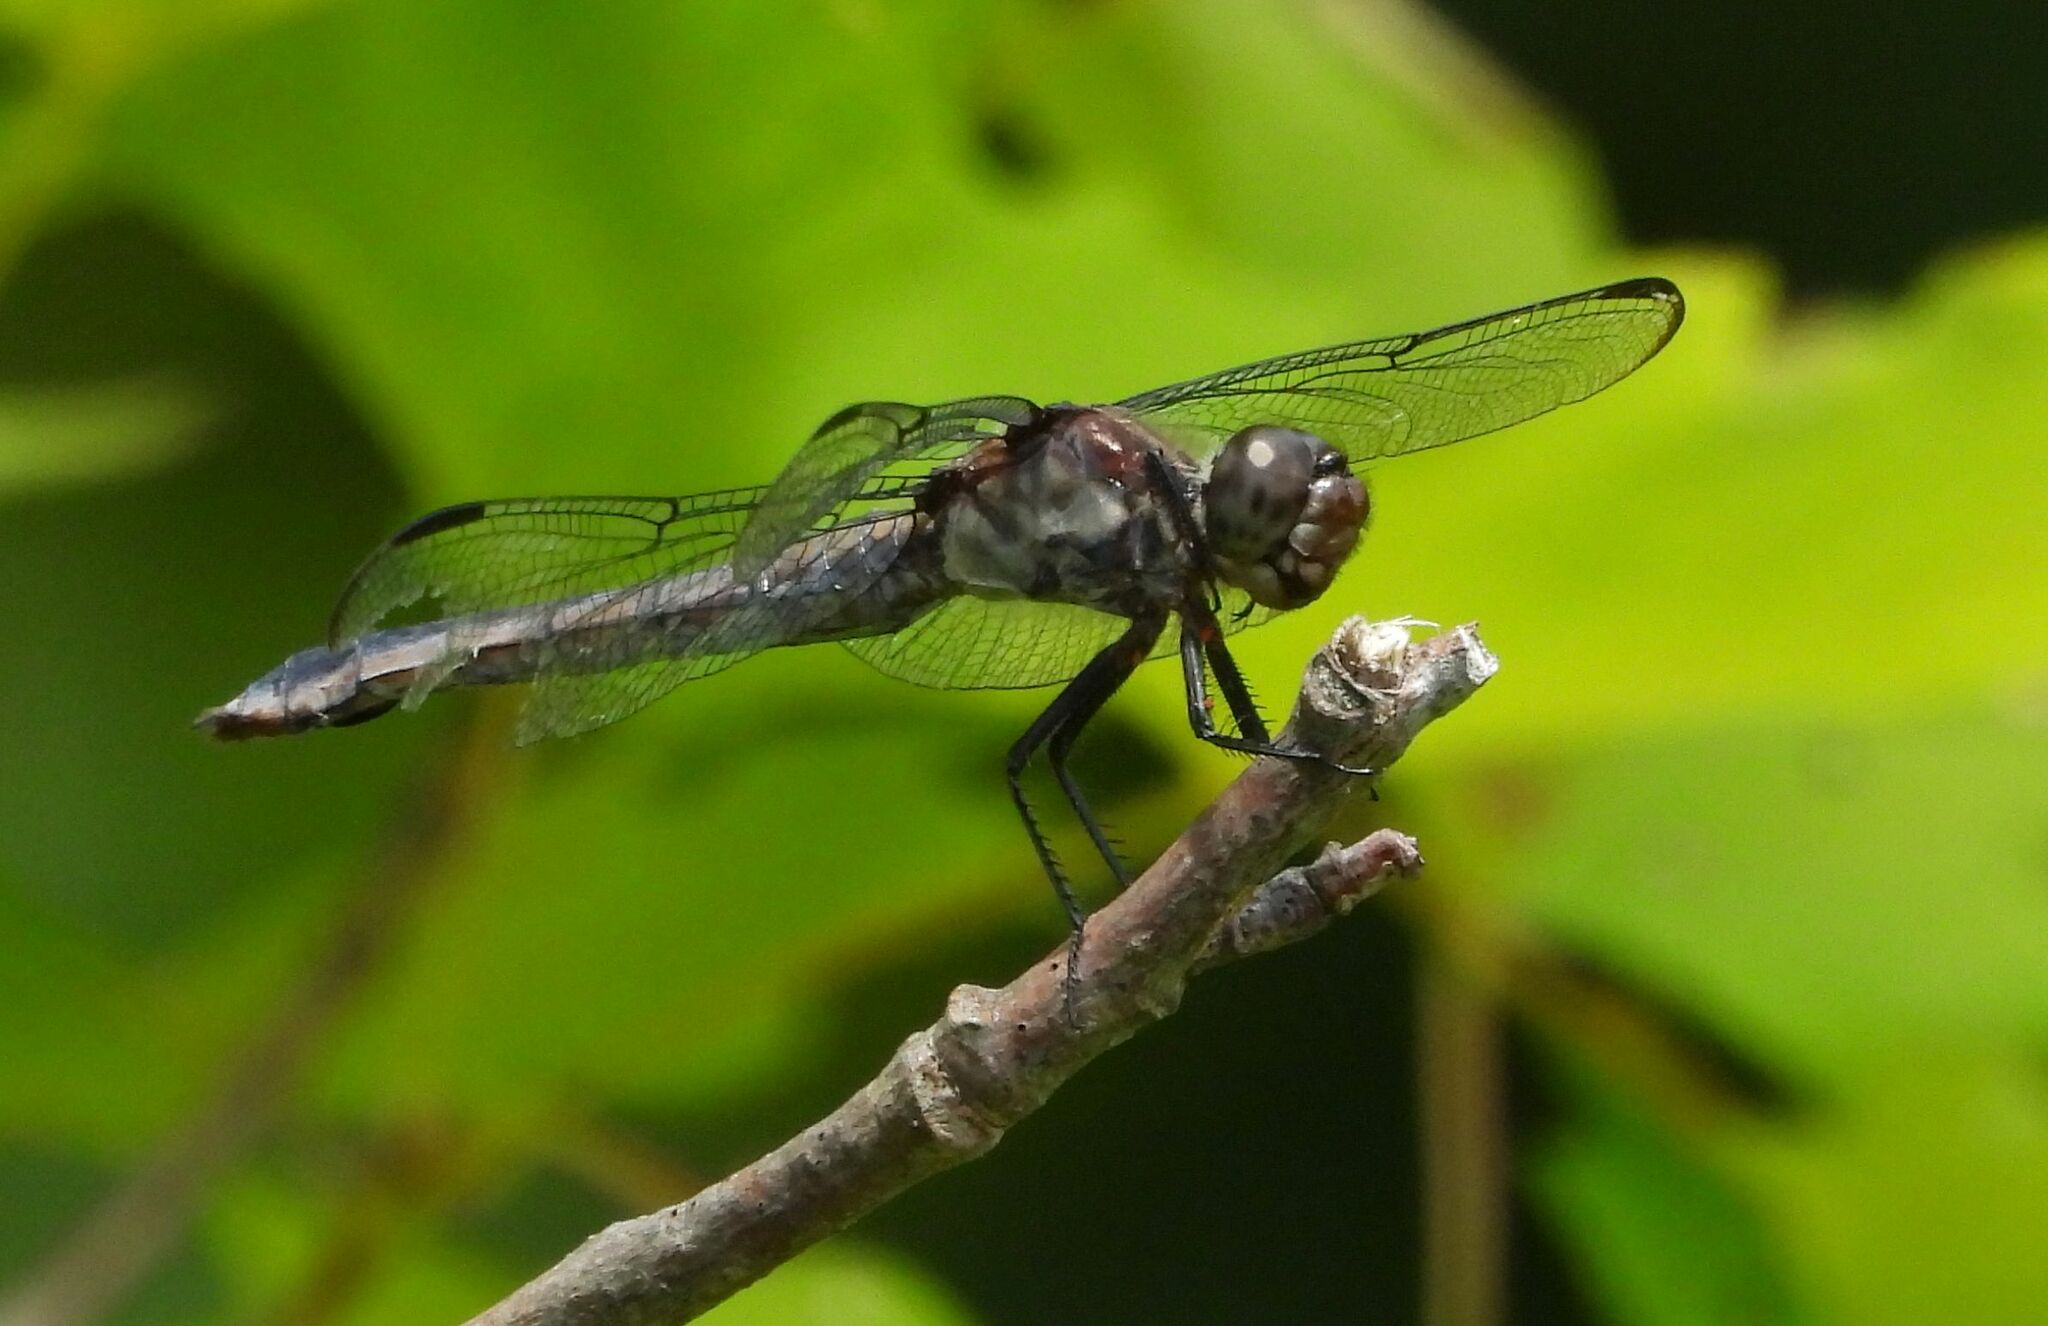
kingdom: Animalia
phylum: Arthropoda
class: Insecta
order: Odonata
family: Libellulidae
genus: Libellula
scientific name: Libellula incesta
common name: Slaty skimmer
